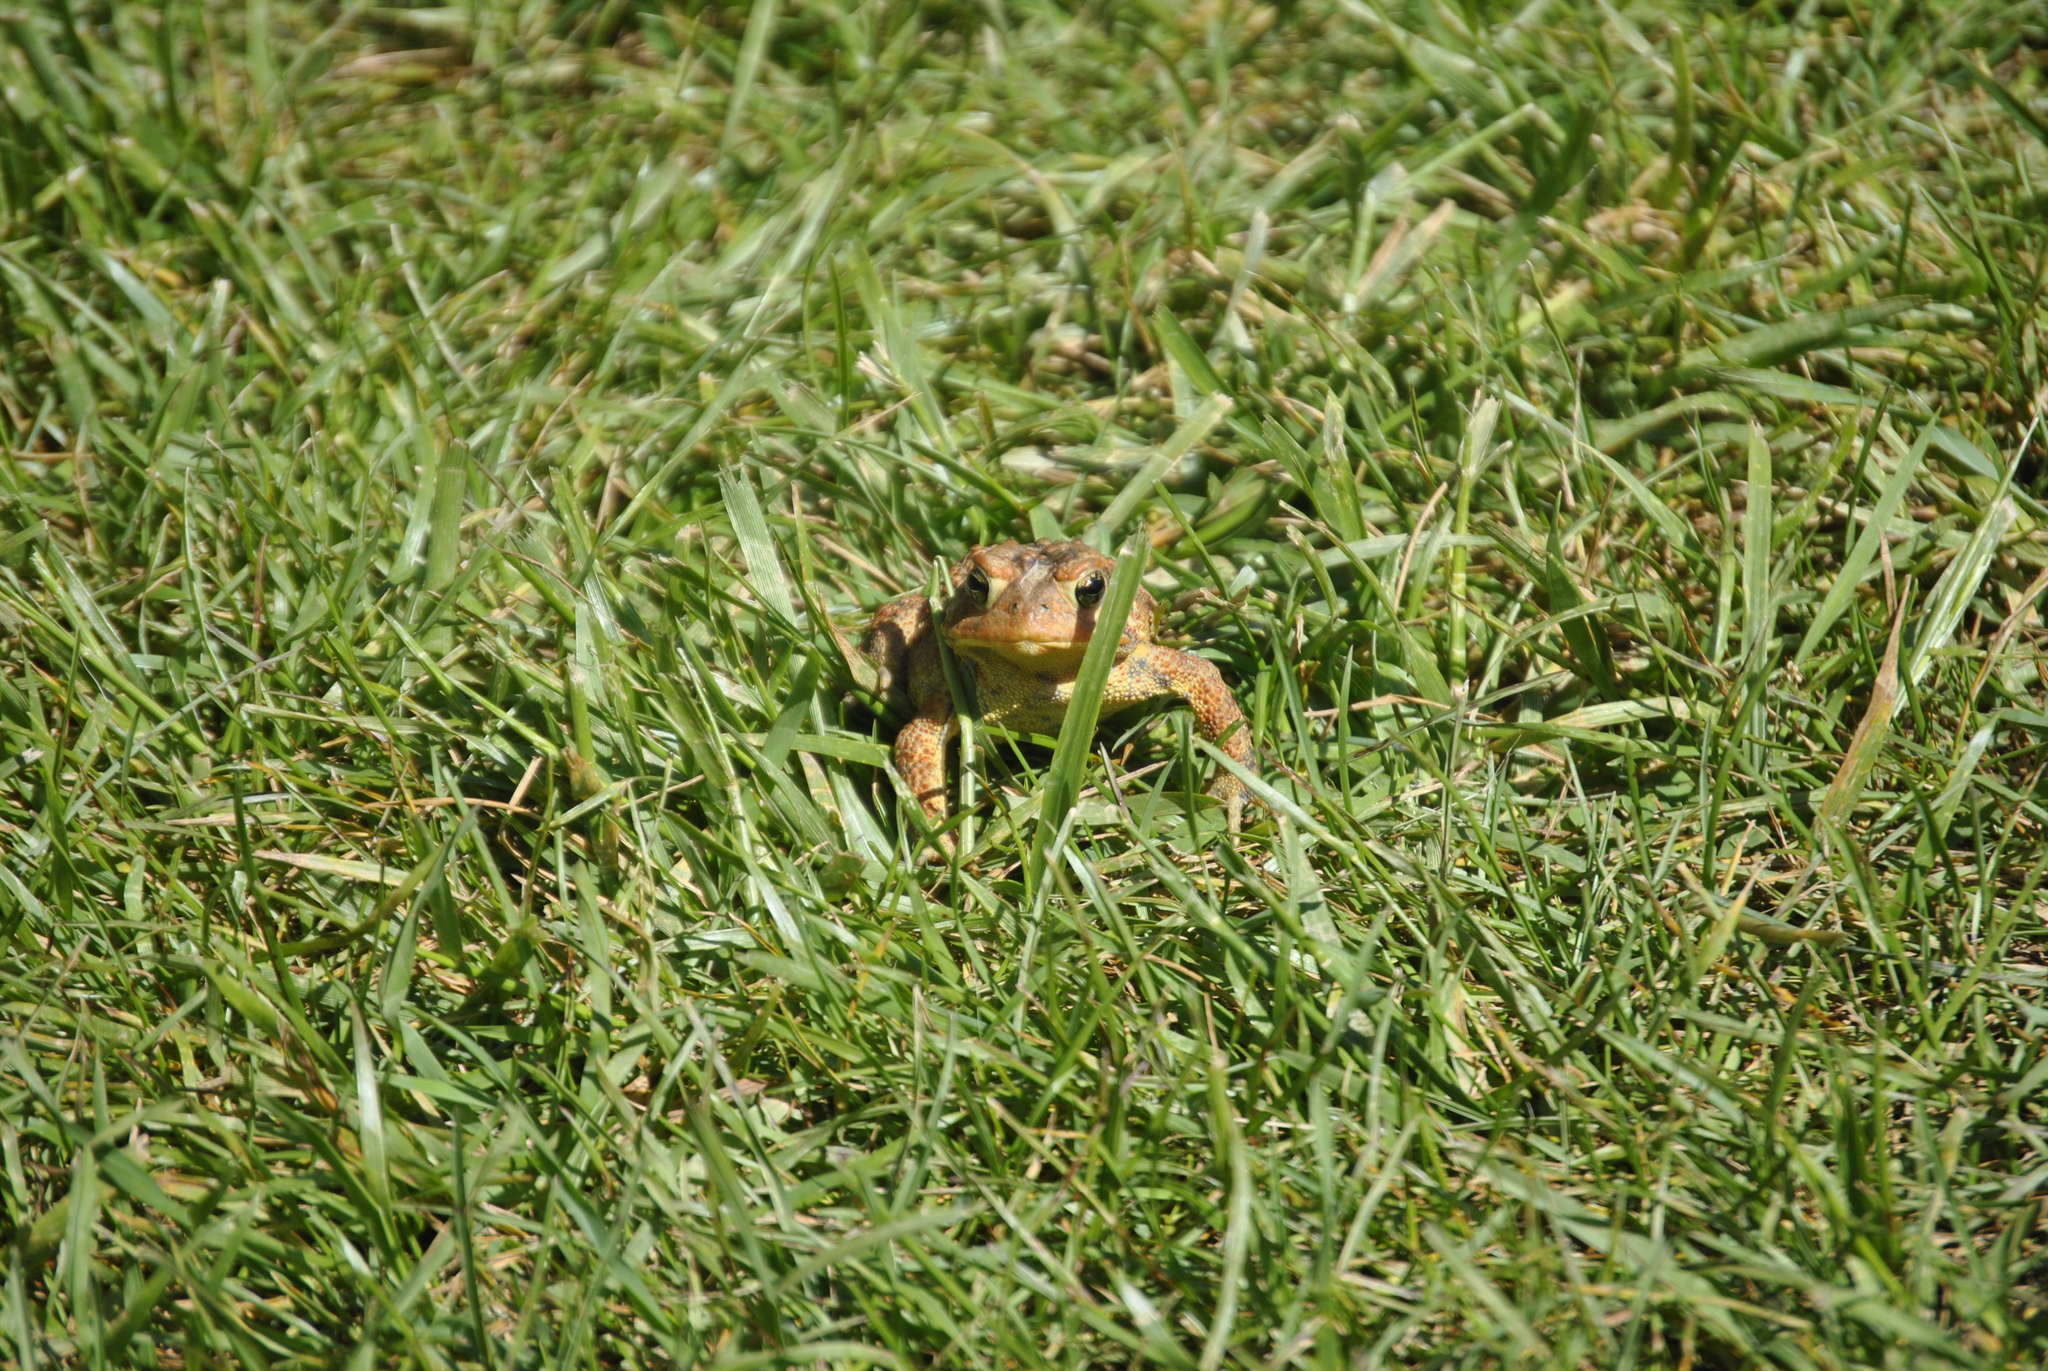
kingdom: Animalia
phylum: Chordata
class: Amphibia
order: Anura
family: Bufonidae
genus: Anaxyrus
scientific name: Anaxyrus americanus
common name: American toad
